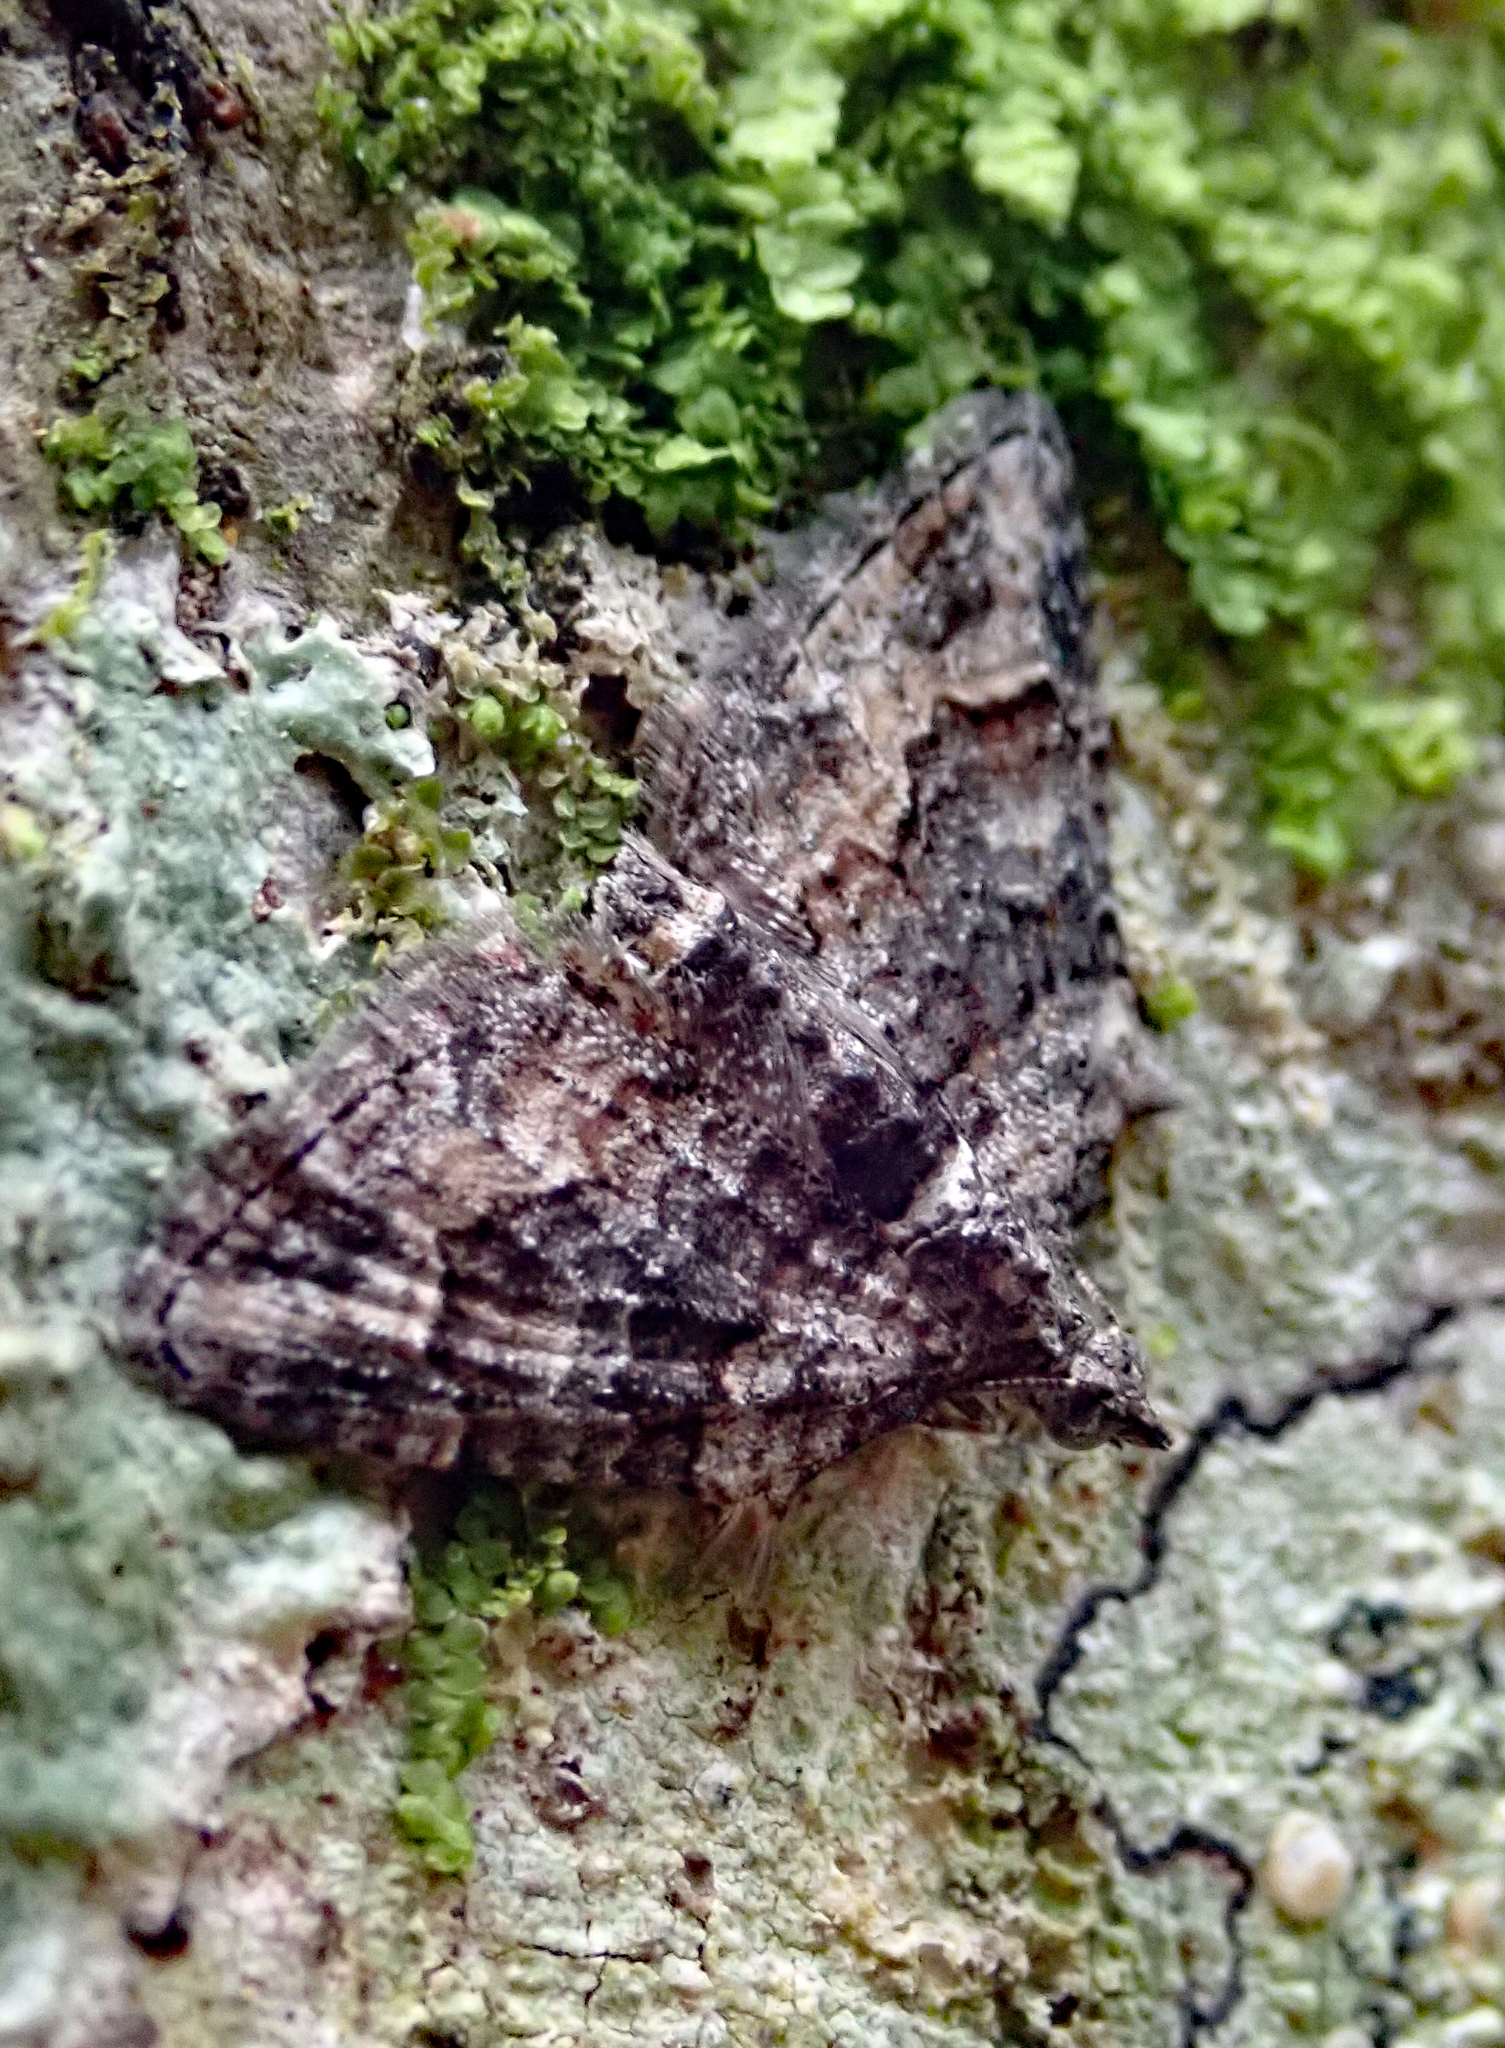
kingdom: Animalia
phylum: Arthropoda
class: Insecta
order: Lepidoptera
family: Geometridae
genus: Phrissogonus
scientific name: Phrissogonus laticostata
